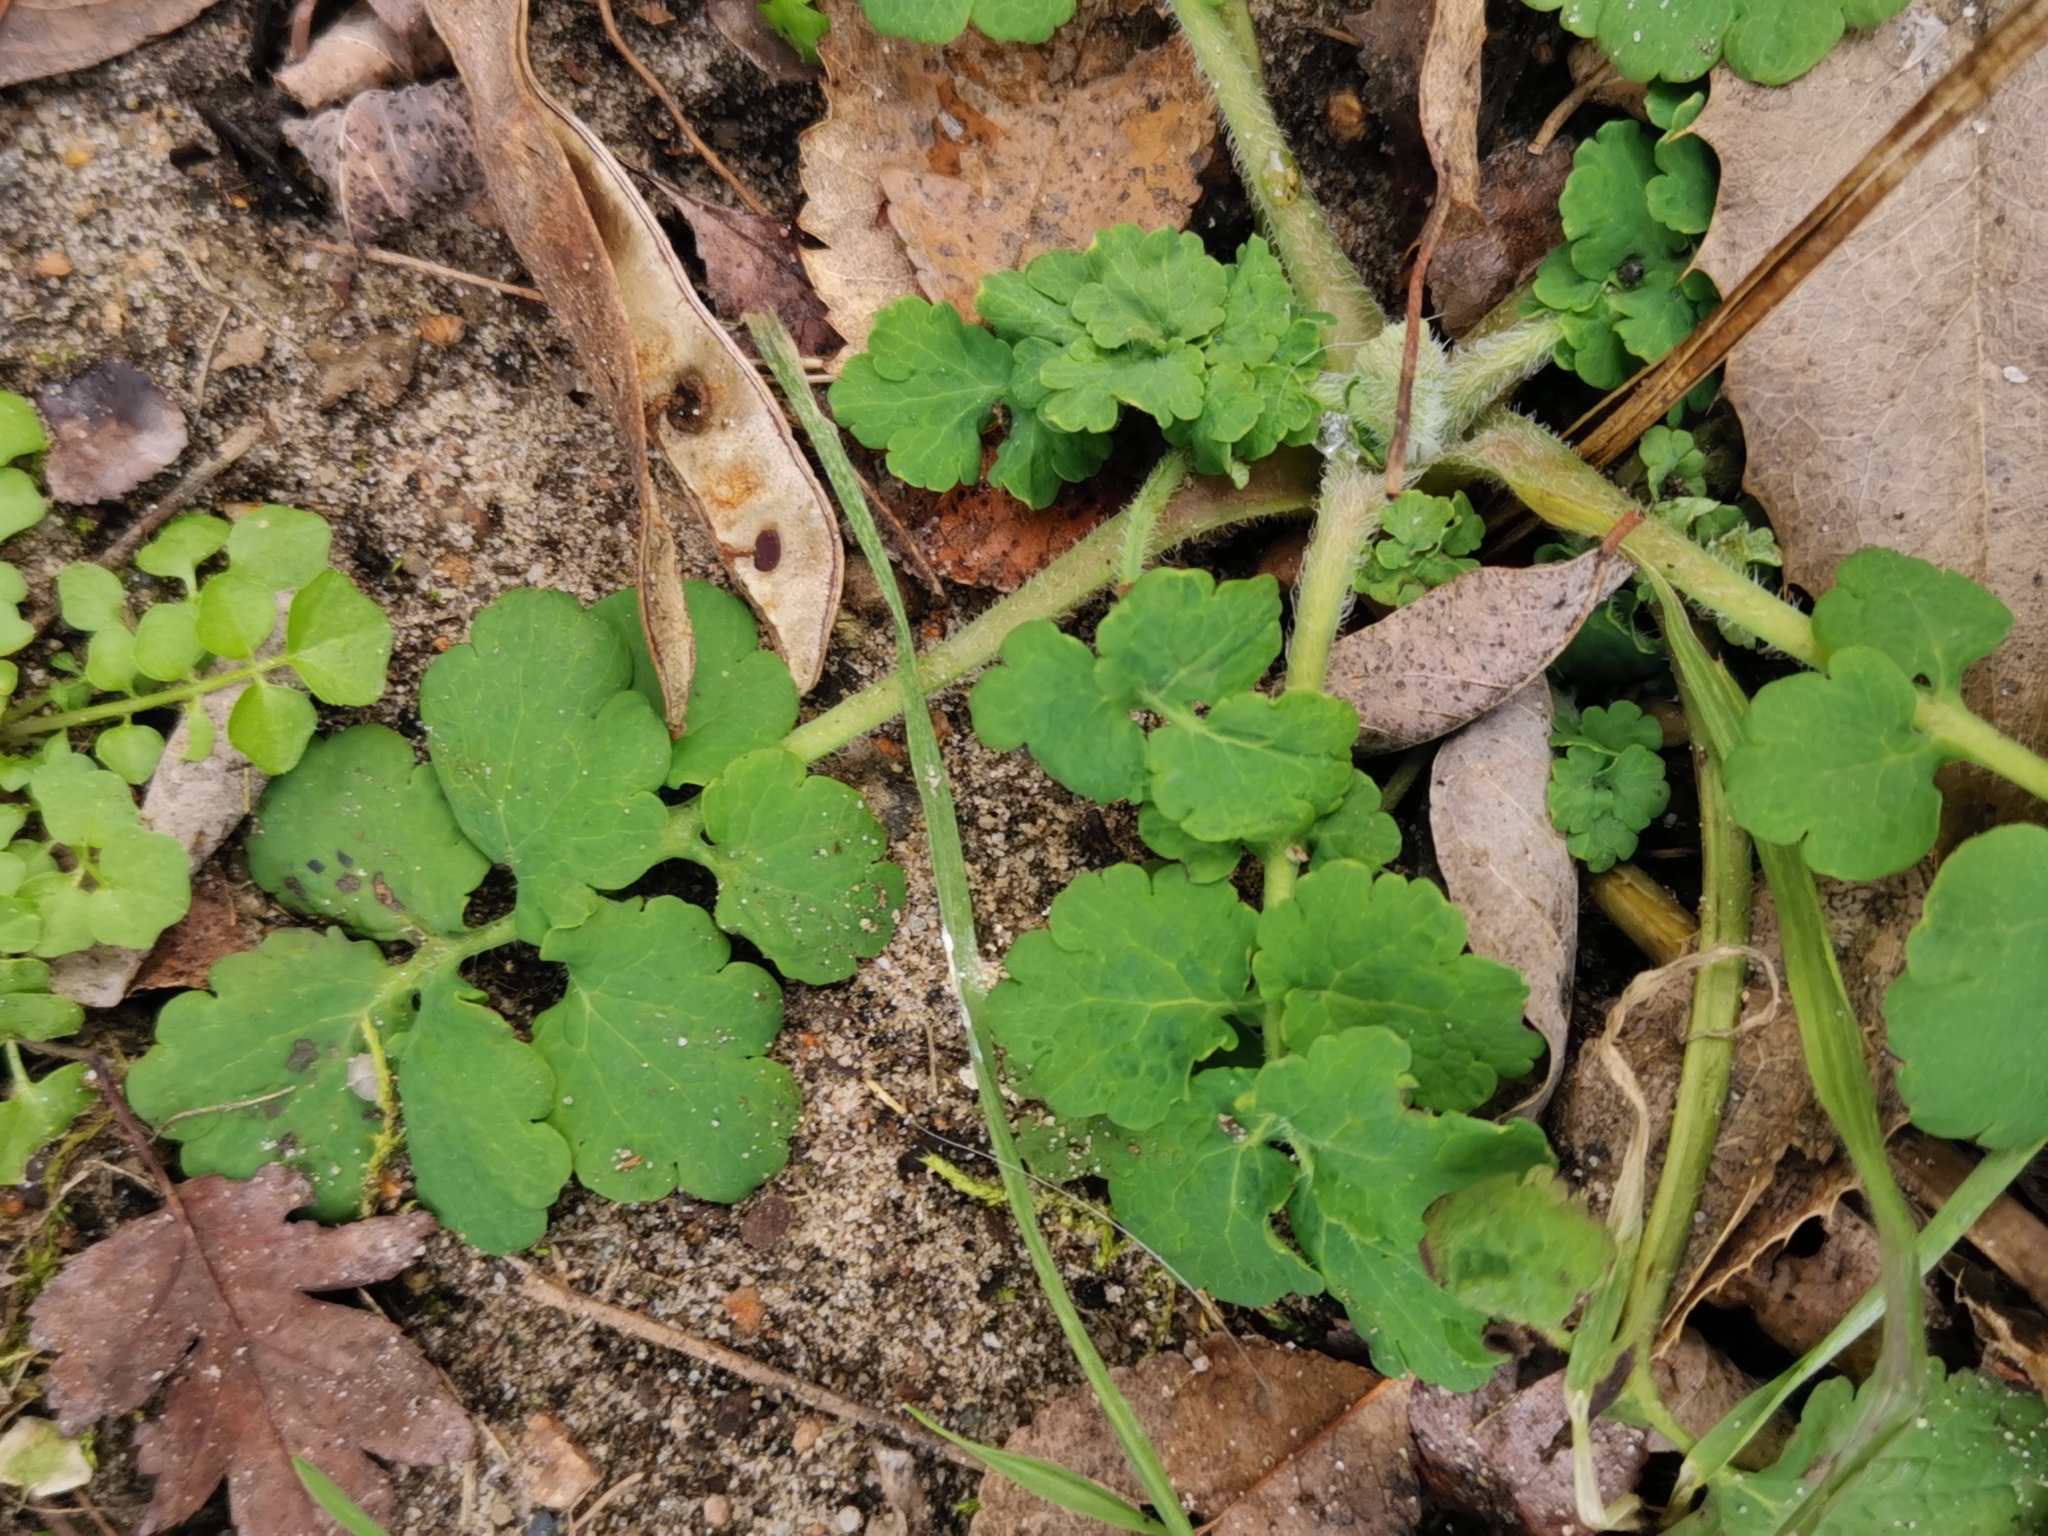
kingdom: Plantae
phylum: Tracheophyta
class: Magnoliopsida
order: Ranunculales
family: Papaveraceae
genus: Chelidonium
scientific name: Chelidonium majus
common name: Greater celandine
